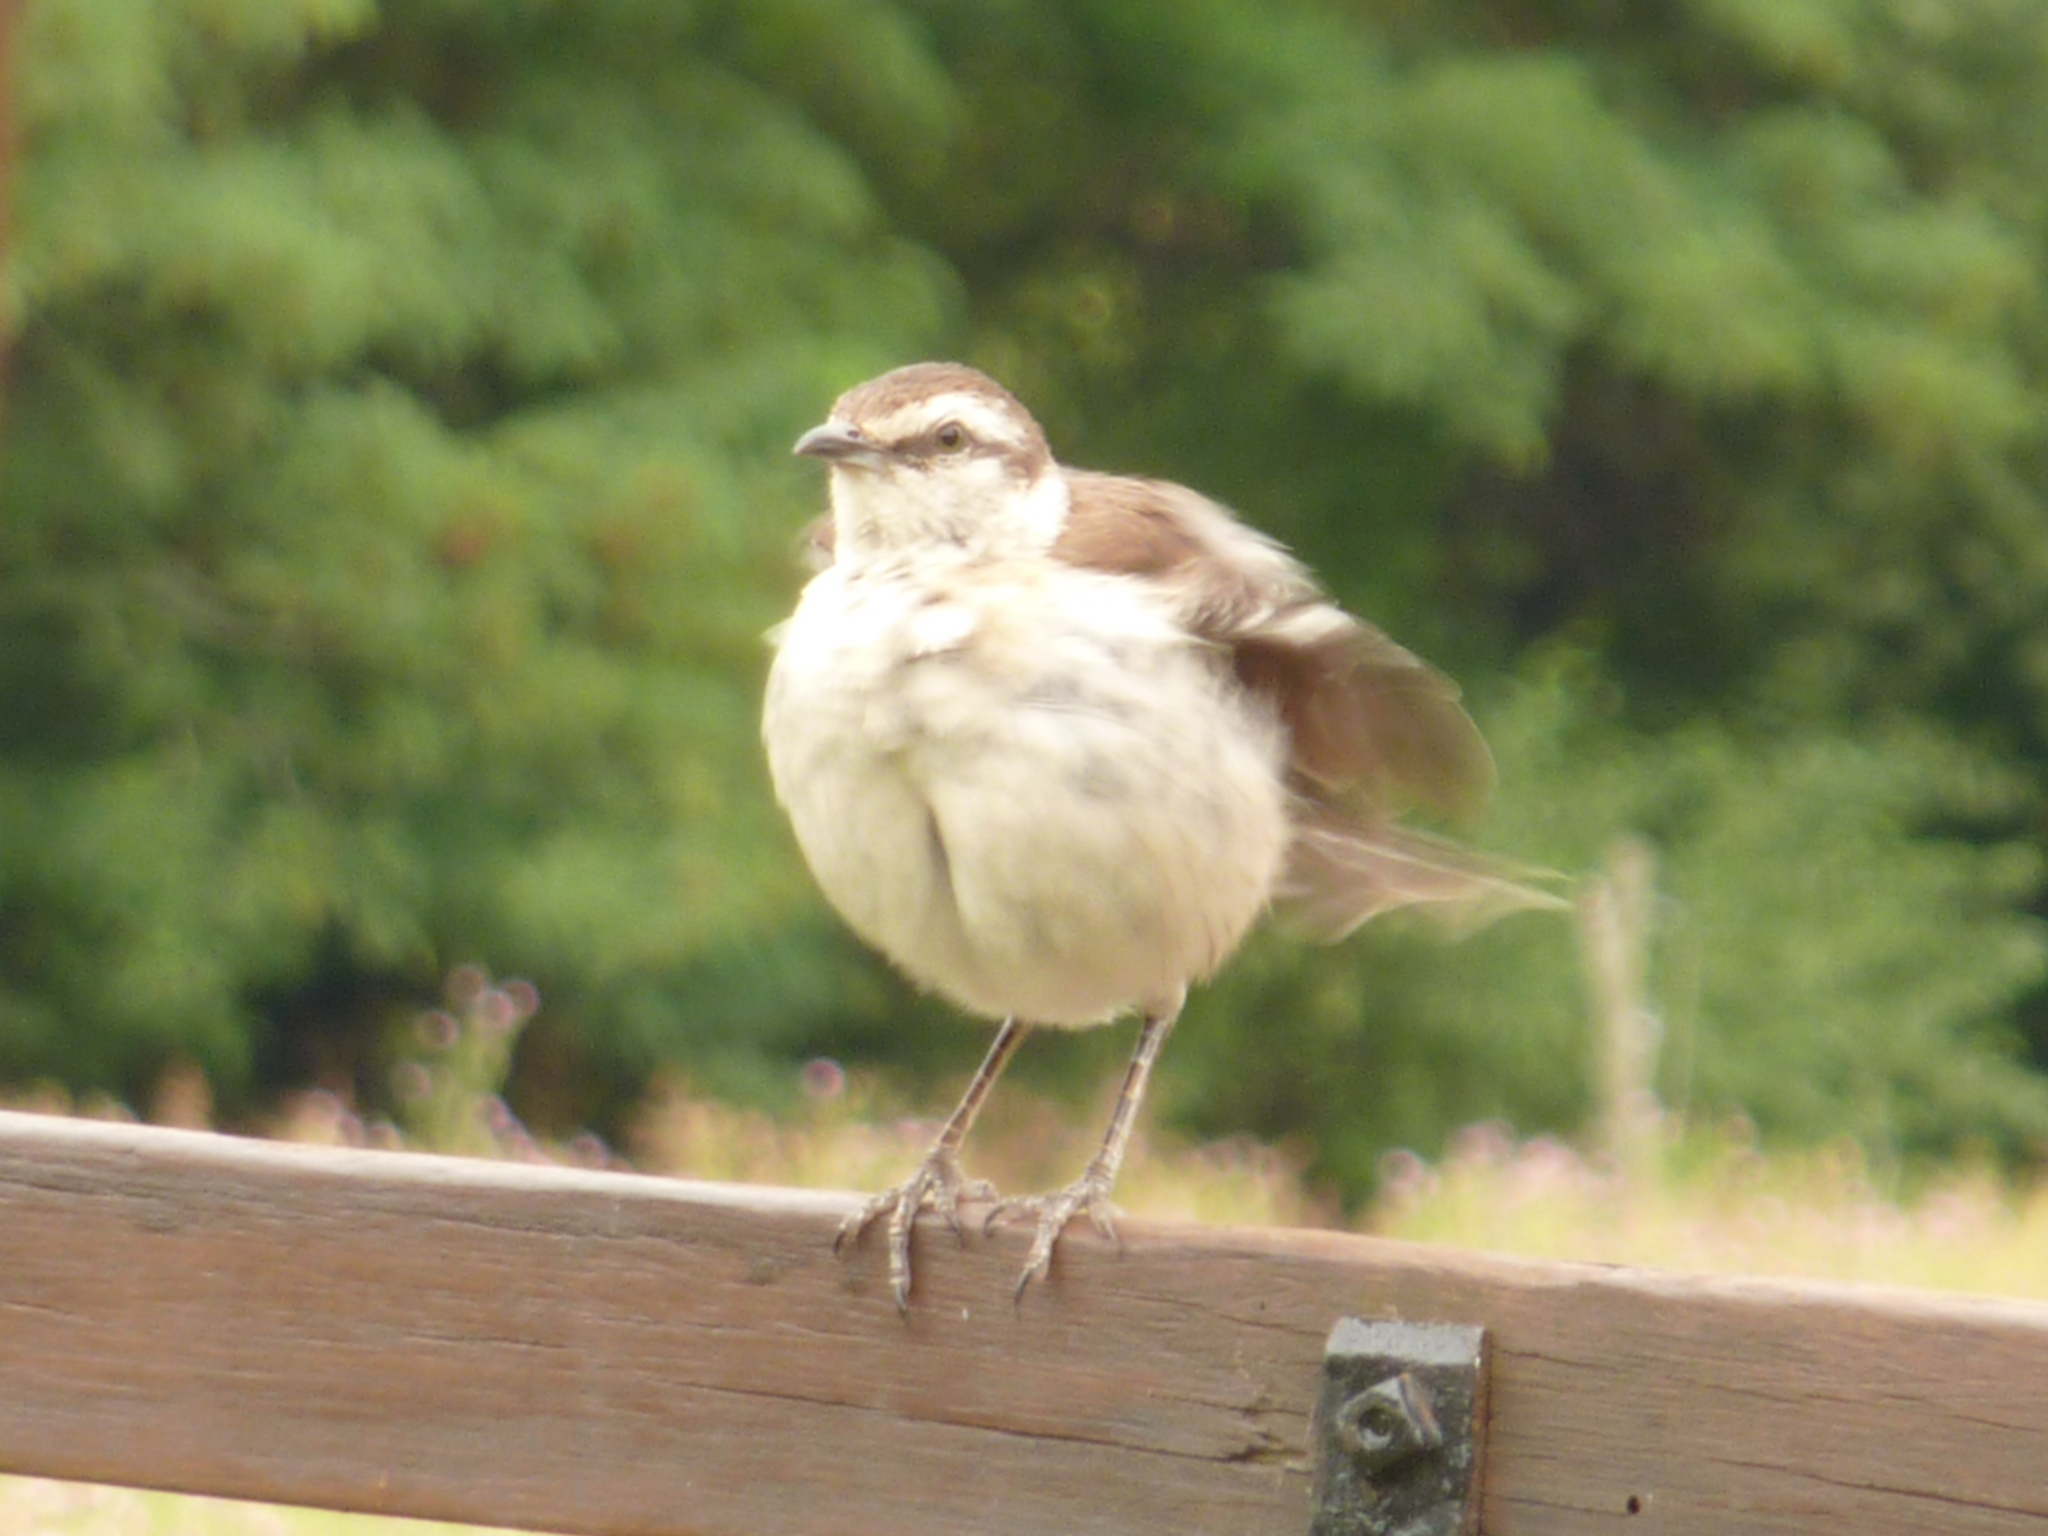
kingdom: Animalia
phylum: Chordata
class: Aves
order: Passeriformes
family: Mimidae
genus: Mimus
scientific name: Mimus saturninus
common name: Chalk-browed mockingbird
